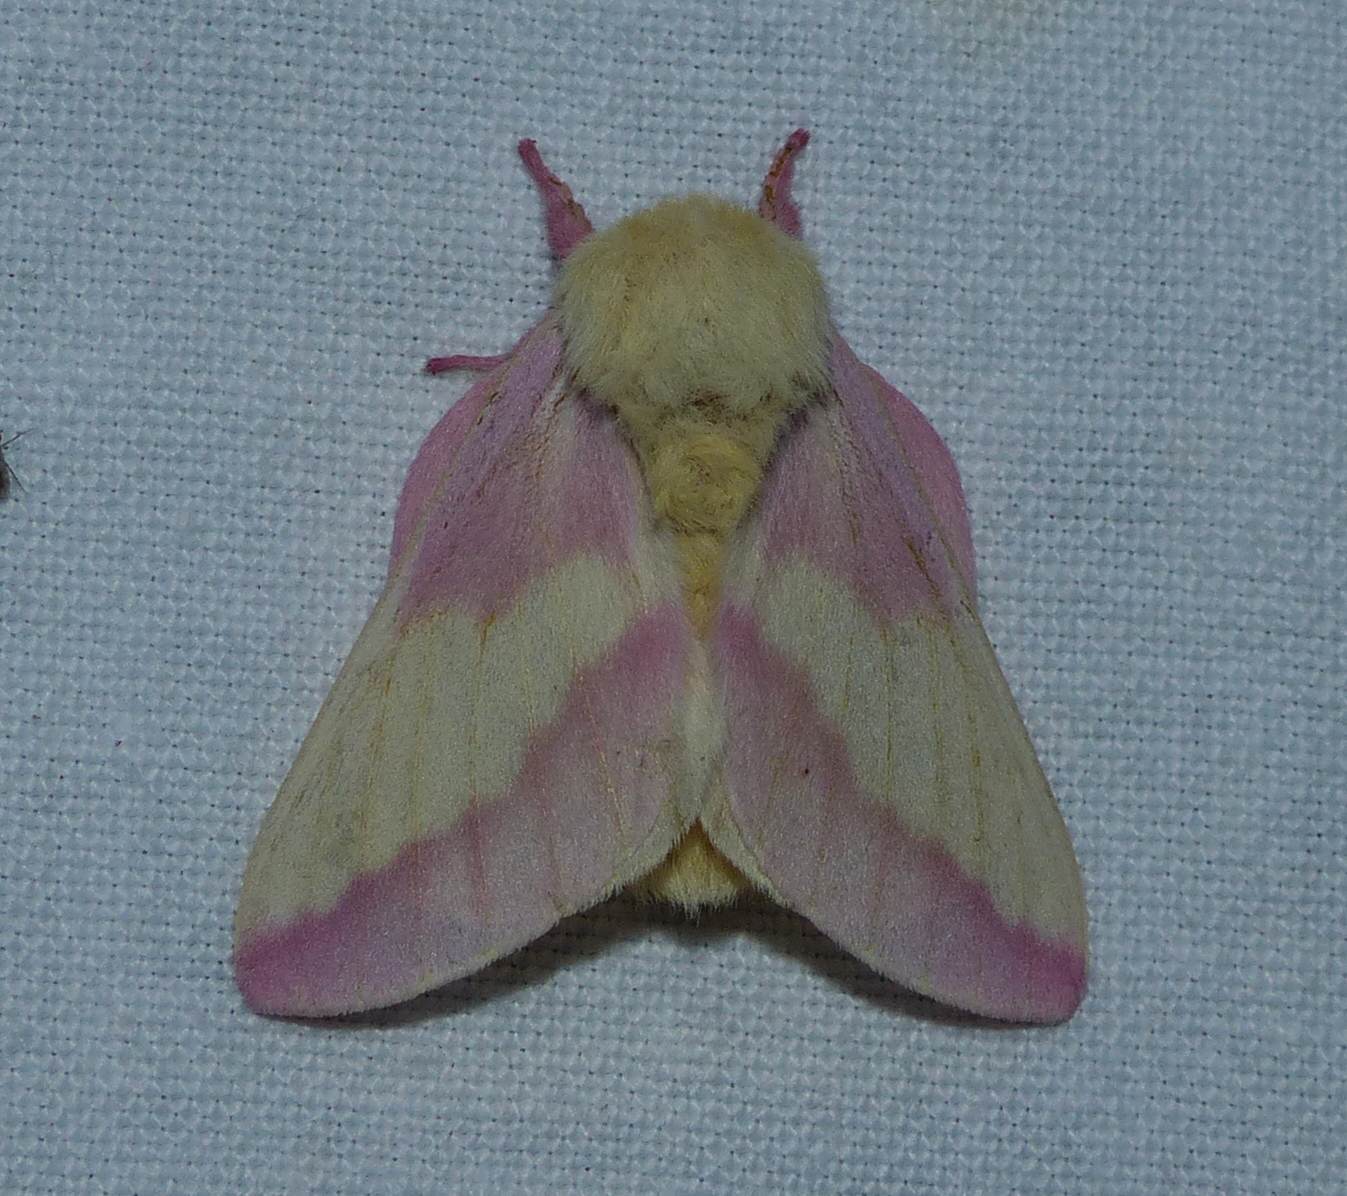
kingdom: Animalia
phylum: Arthropoda
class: Insecta
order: Lepidoptera
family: Saturniidae
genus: Dryocampa
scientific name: Dryocampa rubicunda
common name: Rosy maple moth
